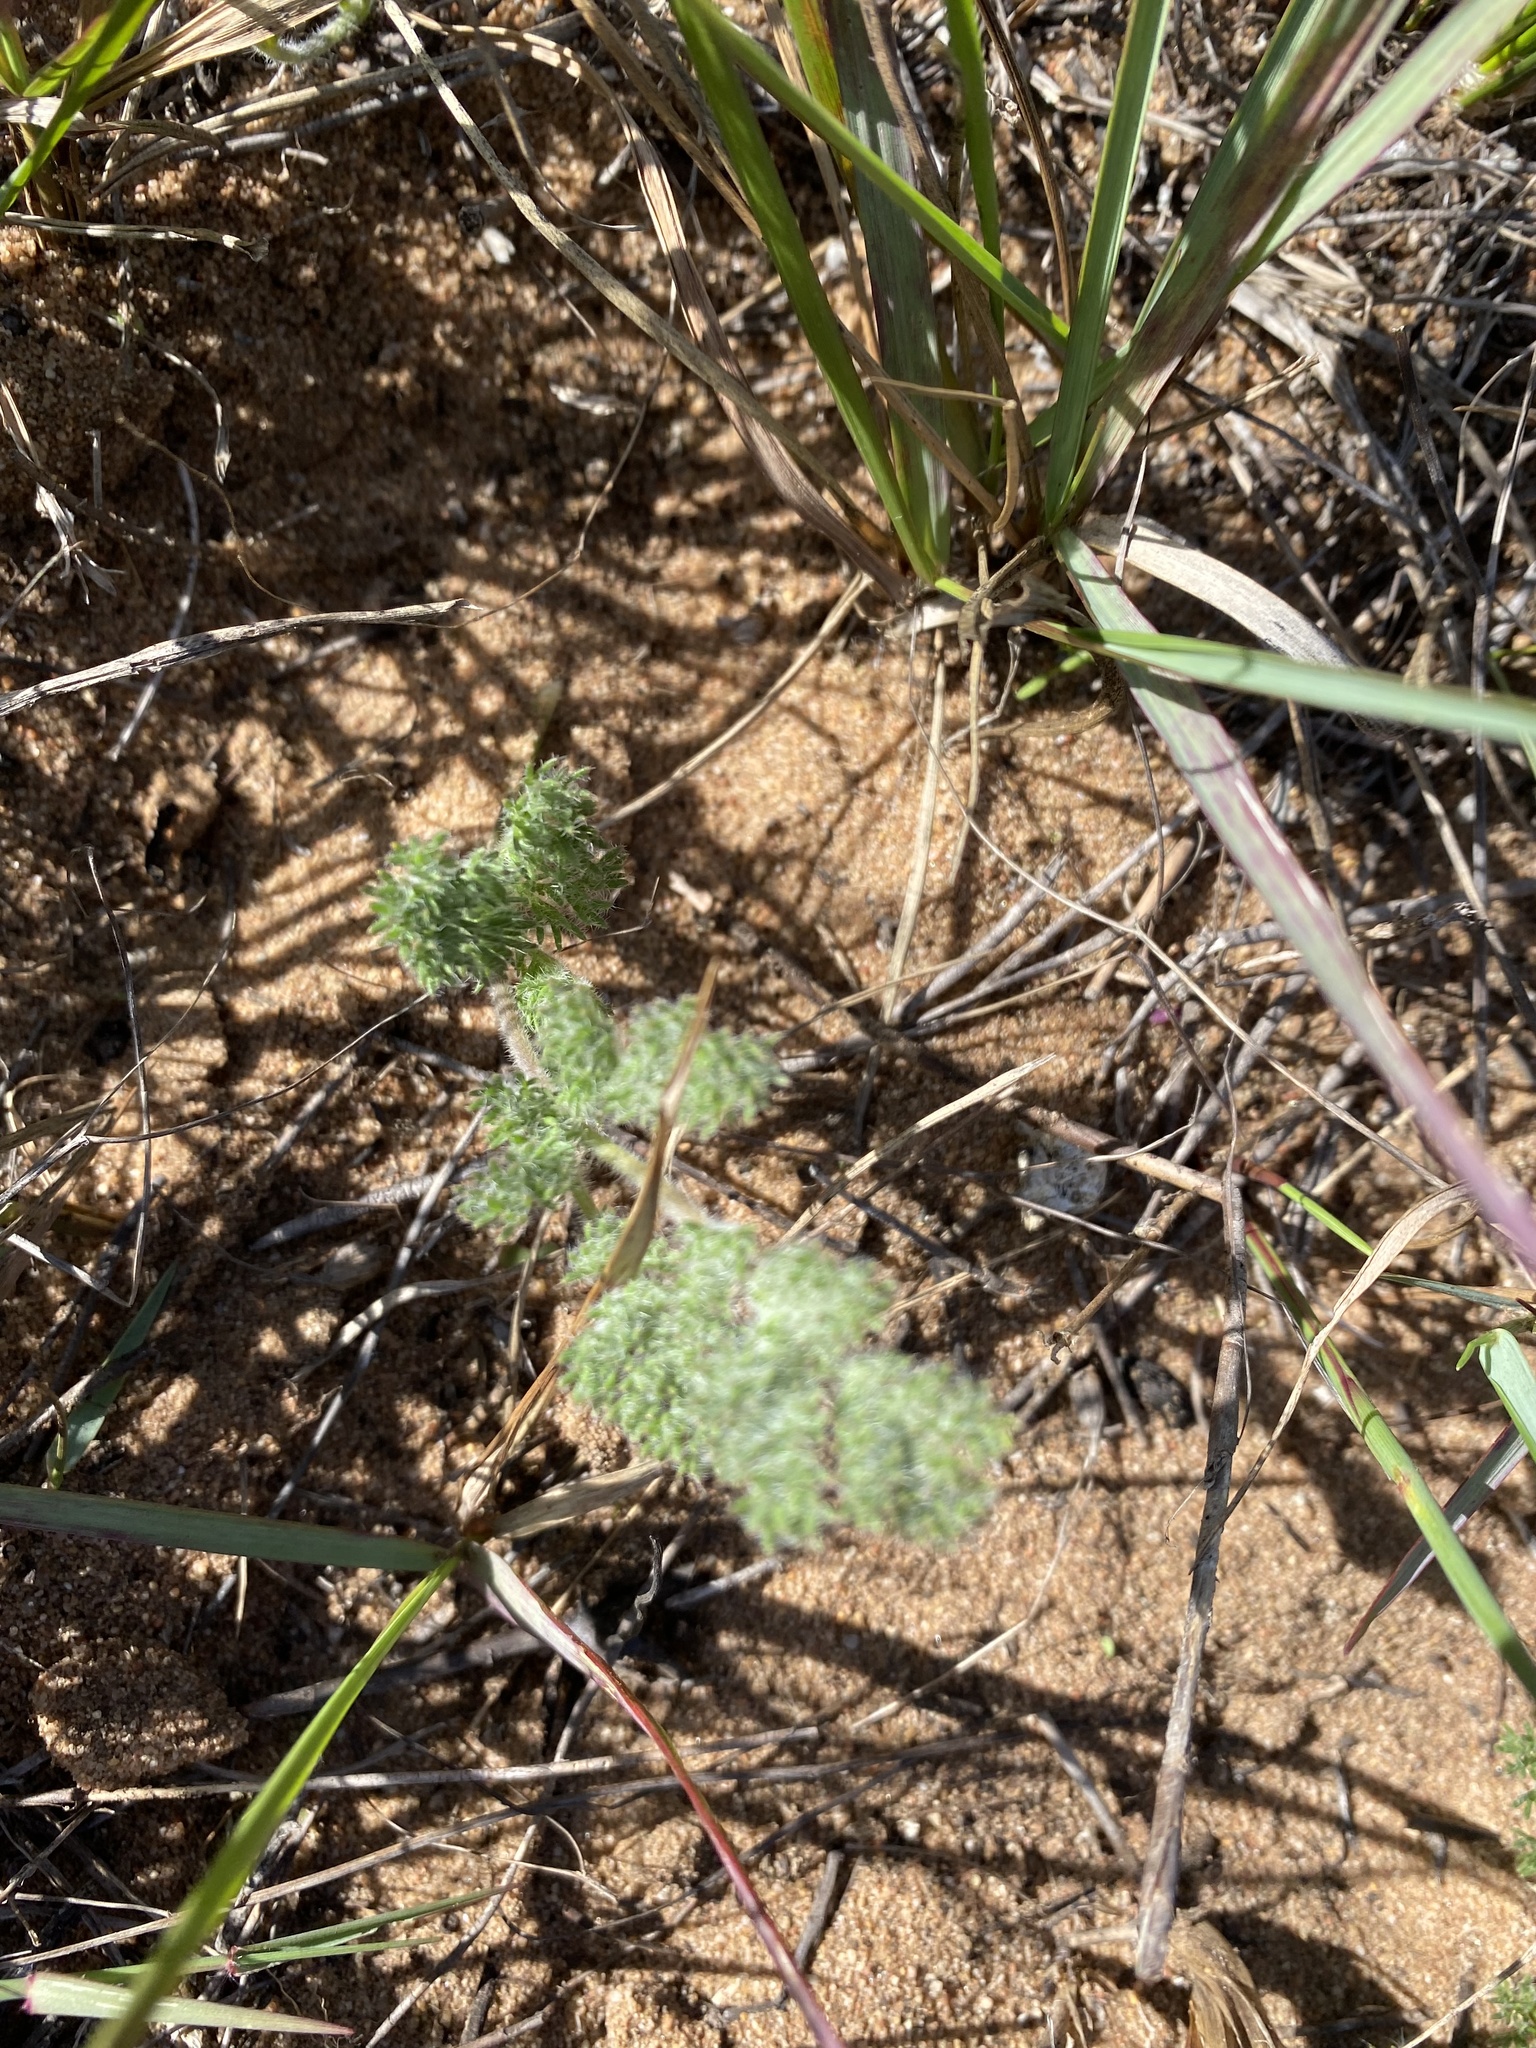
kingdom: Plantae
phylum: Tracheophyta
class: Magnoliopsida
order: Geraniales
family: Geraniaceae
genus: Pelargonium
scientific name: Pelargonium triste
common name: Night-scent pelargonium
